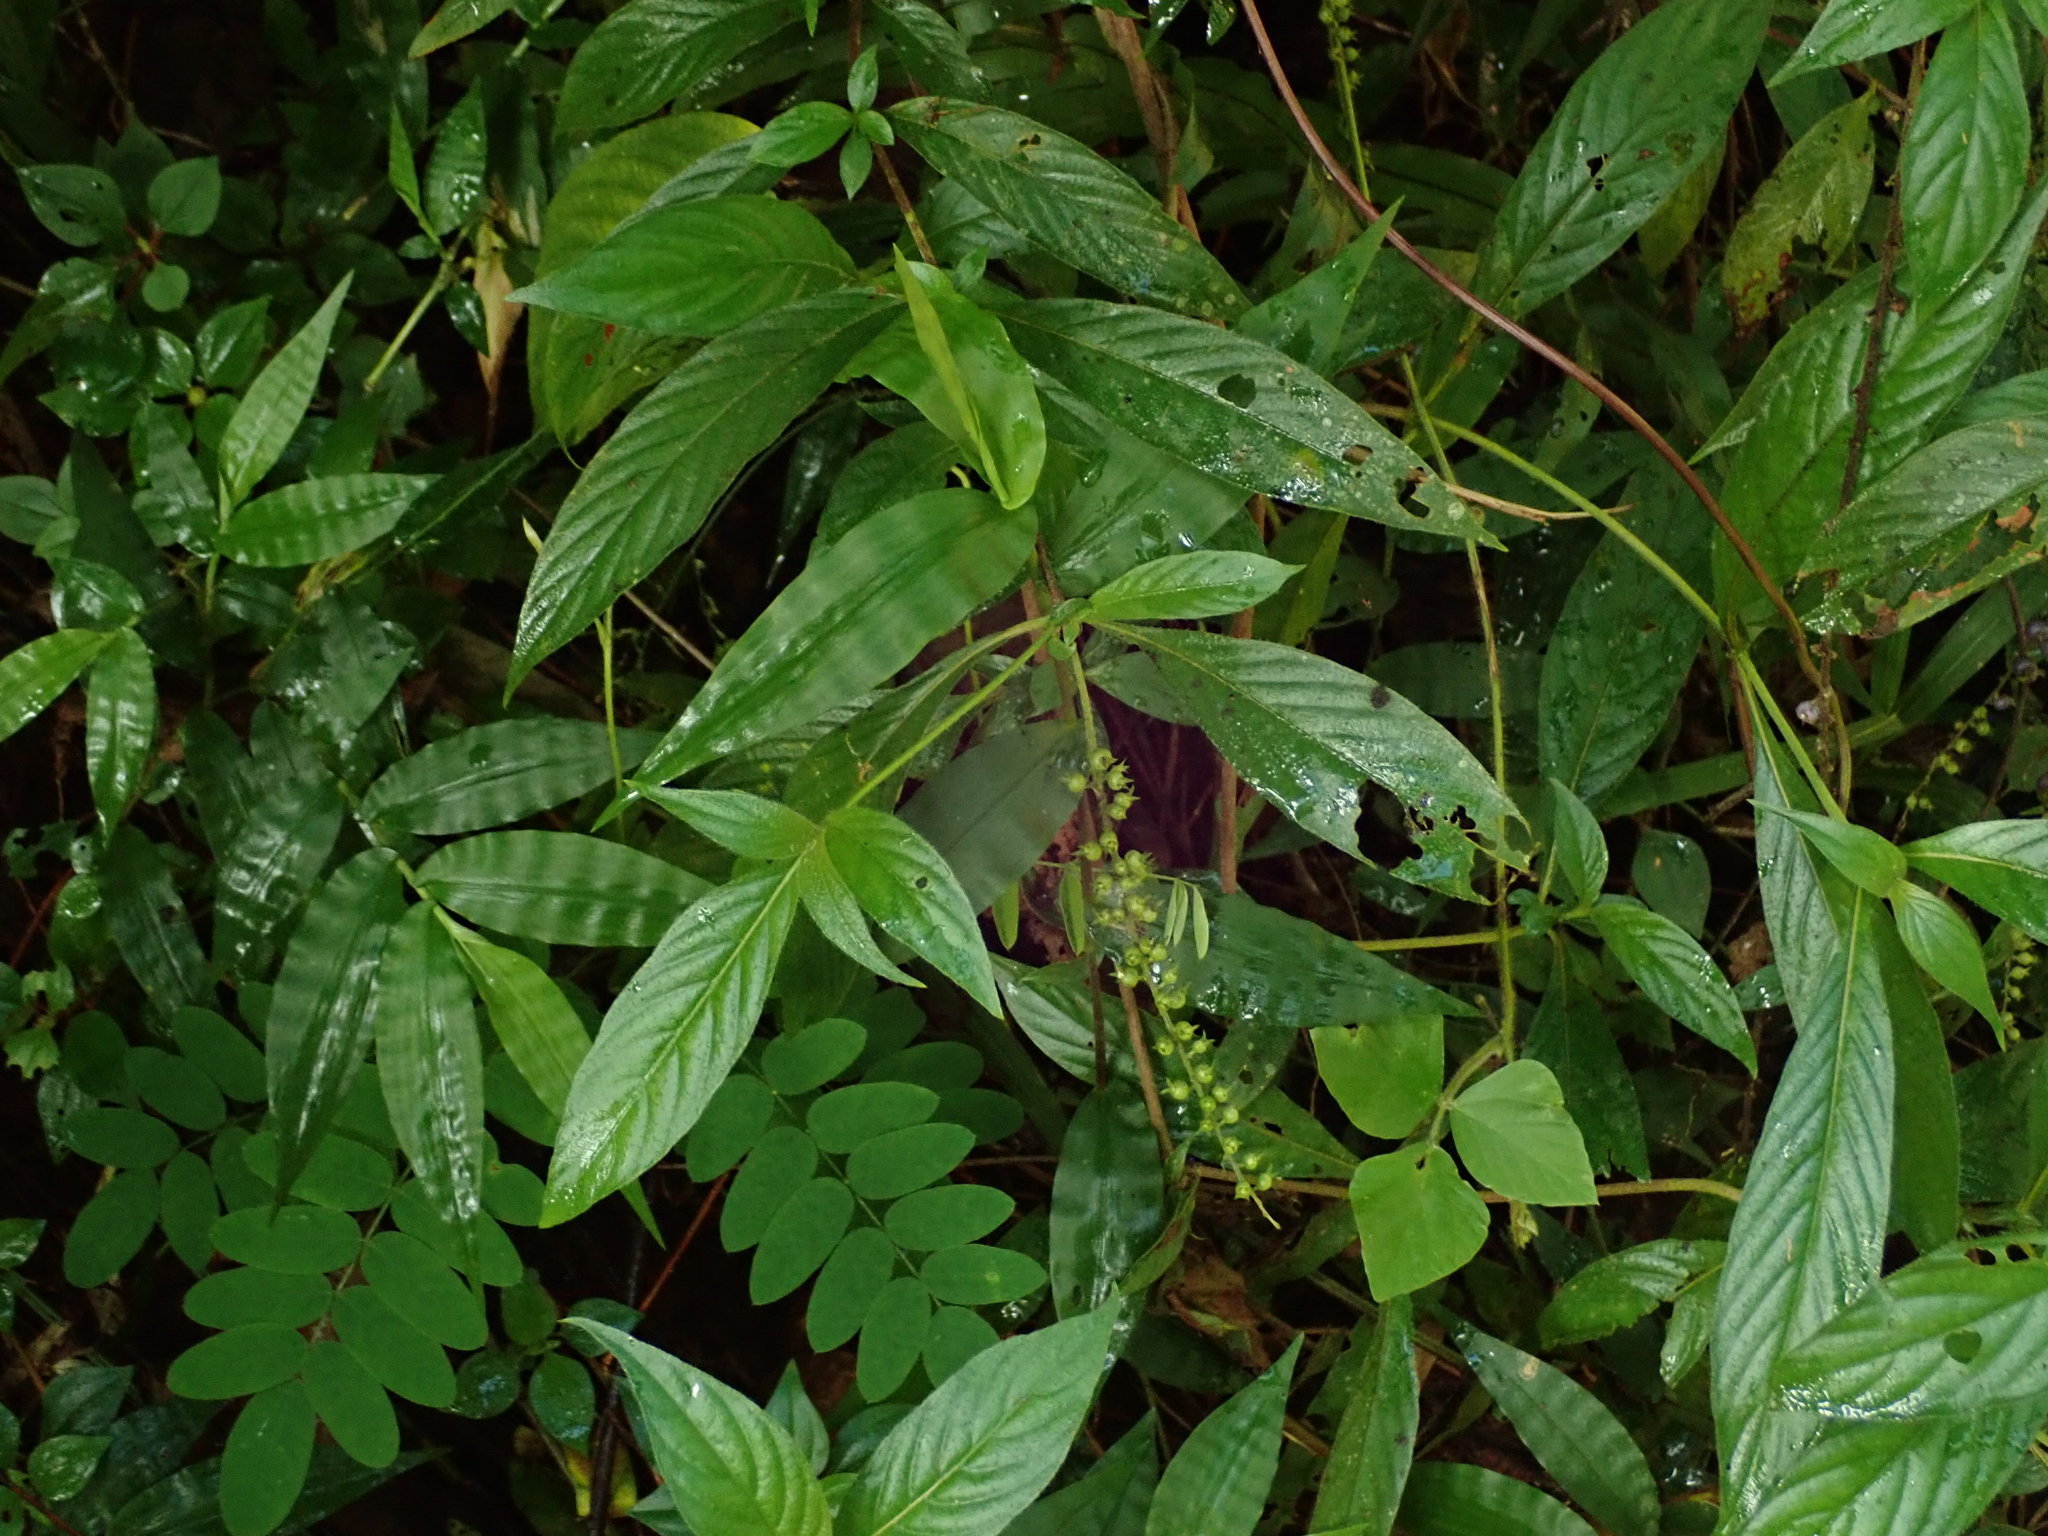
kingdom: Plantae
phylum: Tracheophyta
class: Magnoliopsida
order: Gentianales
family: Rubiaceae
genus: Gonzalagunia
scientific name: Gonzalagunia hirsuta
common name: Mata de mariposa
